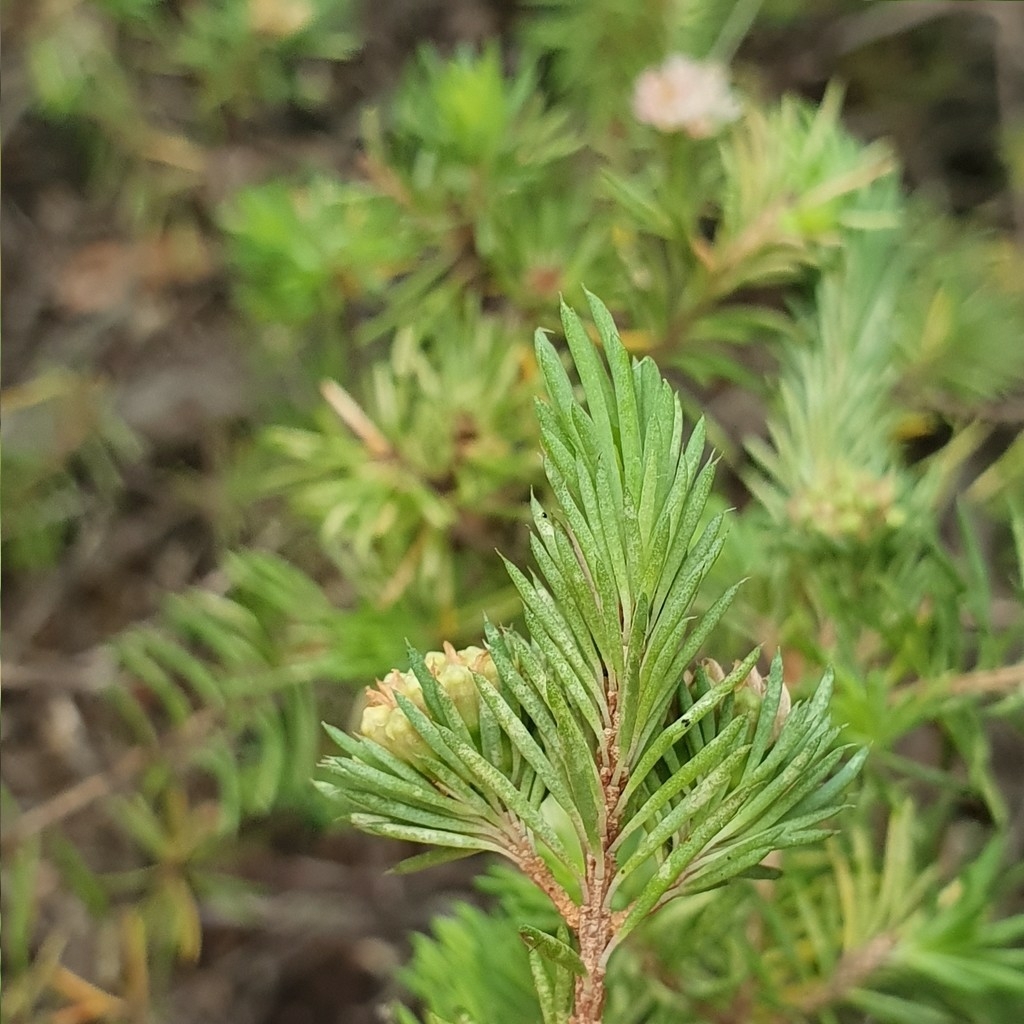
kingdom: Plantae
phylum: Tracheophyta
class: Magnoliopsida
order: Myrtales
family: Myrtaceae
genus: Darwinia
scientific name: Darwinia fascicularis
